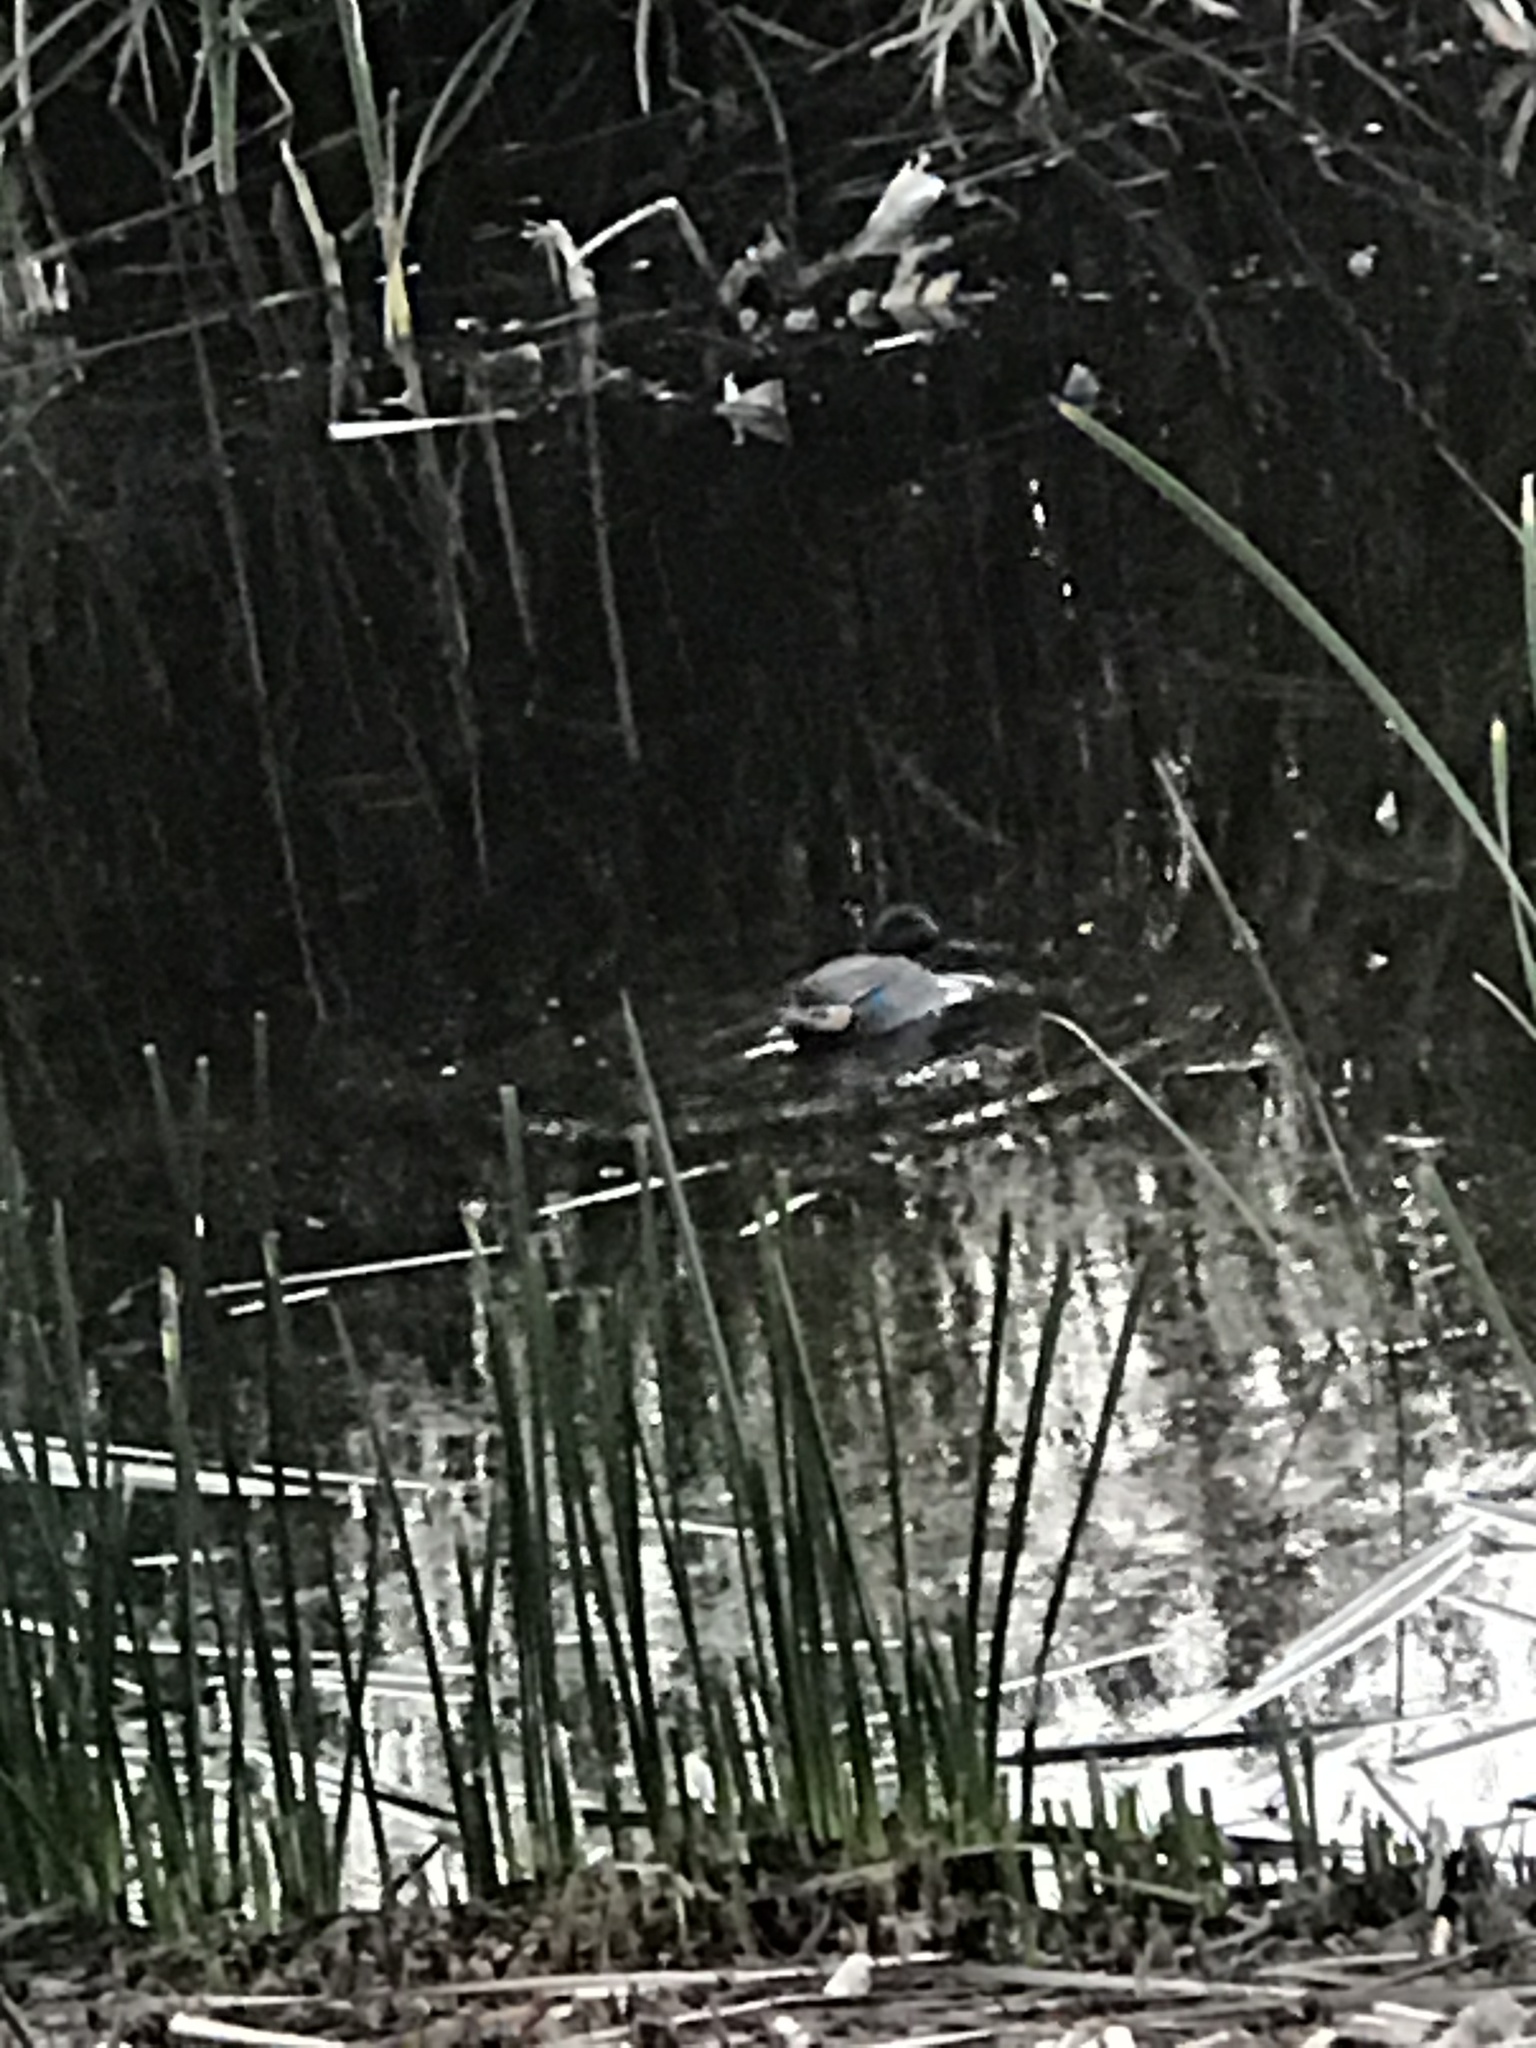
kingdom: Animalia
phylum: Chordata
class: Aves
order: Anseriformes
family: Anatidae
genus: Anas
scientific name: Anas carolinensis
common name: Green-winged teal
